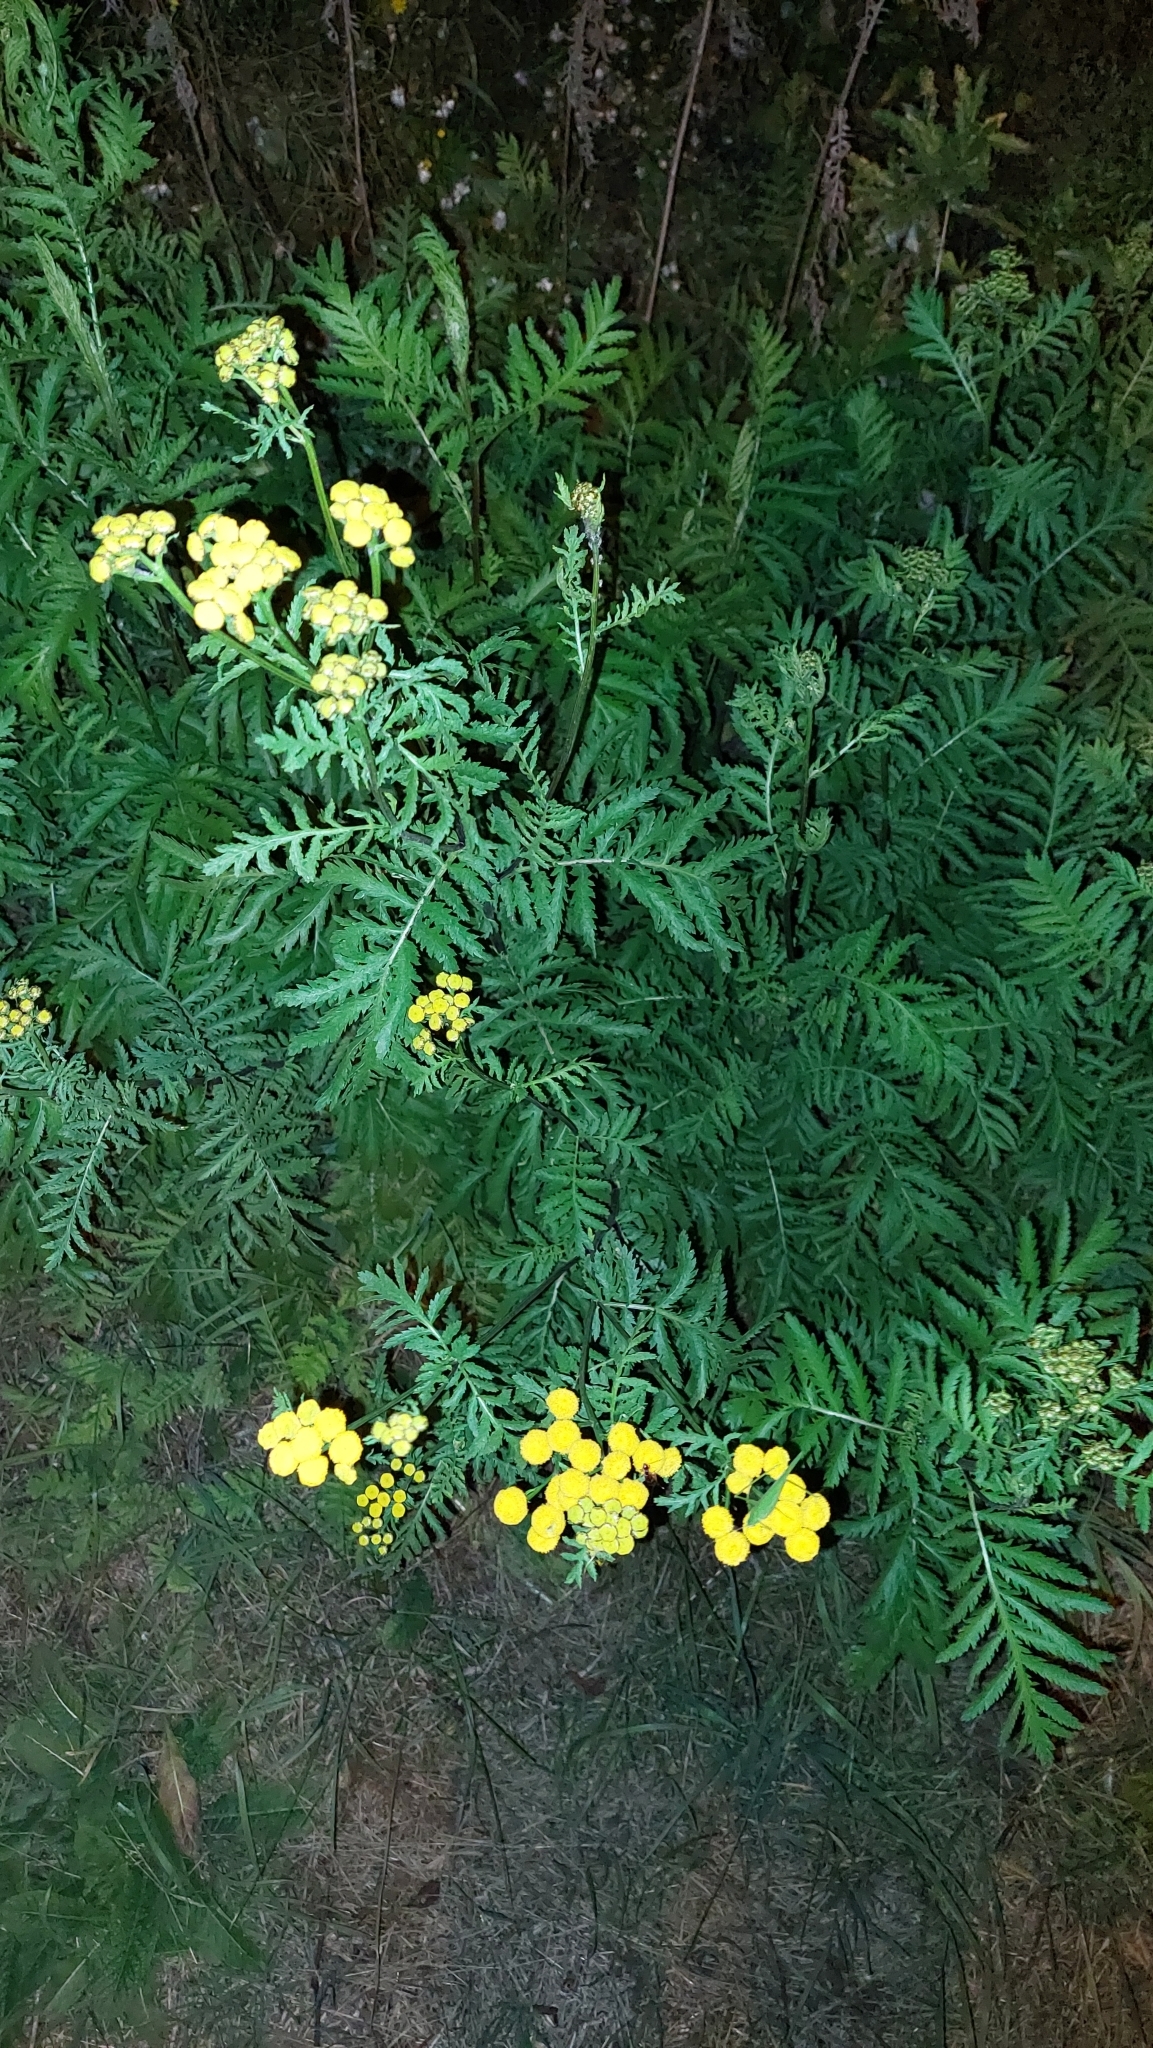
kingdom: Plantae
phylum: Tracheophyta
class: Magnoliopsida
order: Asterales
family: Asteraceae
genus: Tanacetum
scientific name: Tanacetum vulgare
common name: Common tansy
